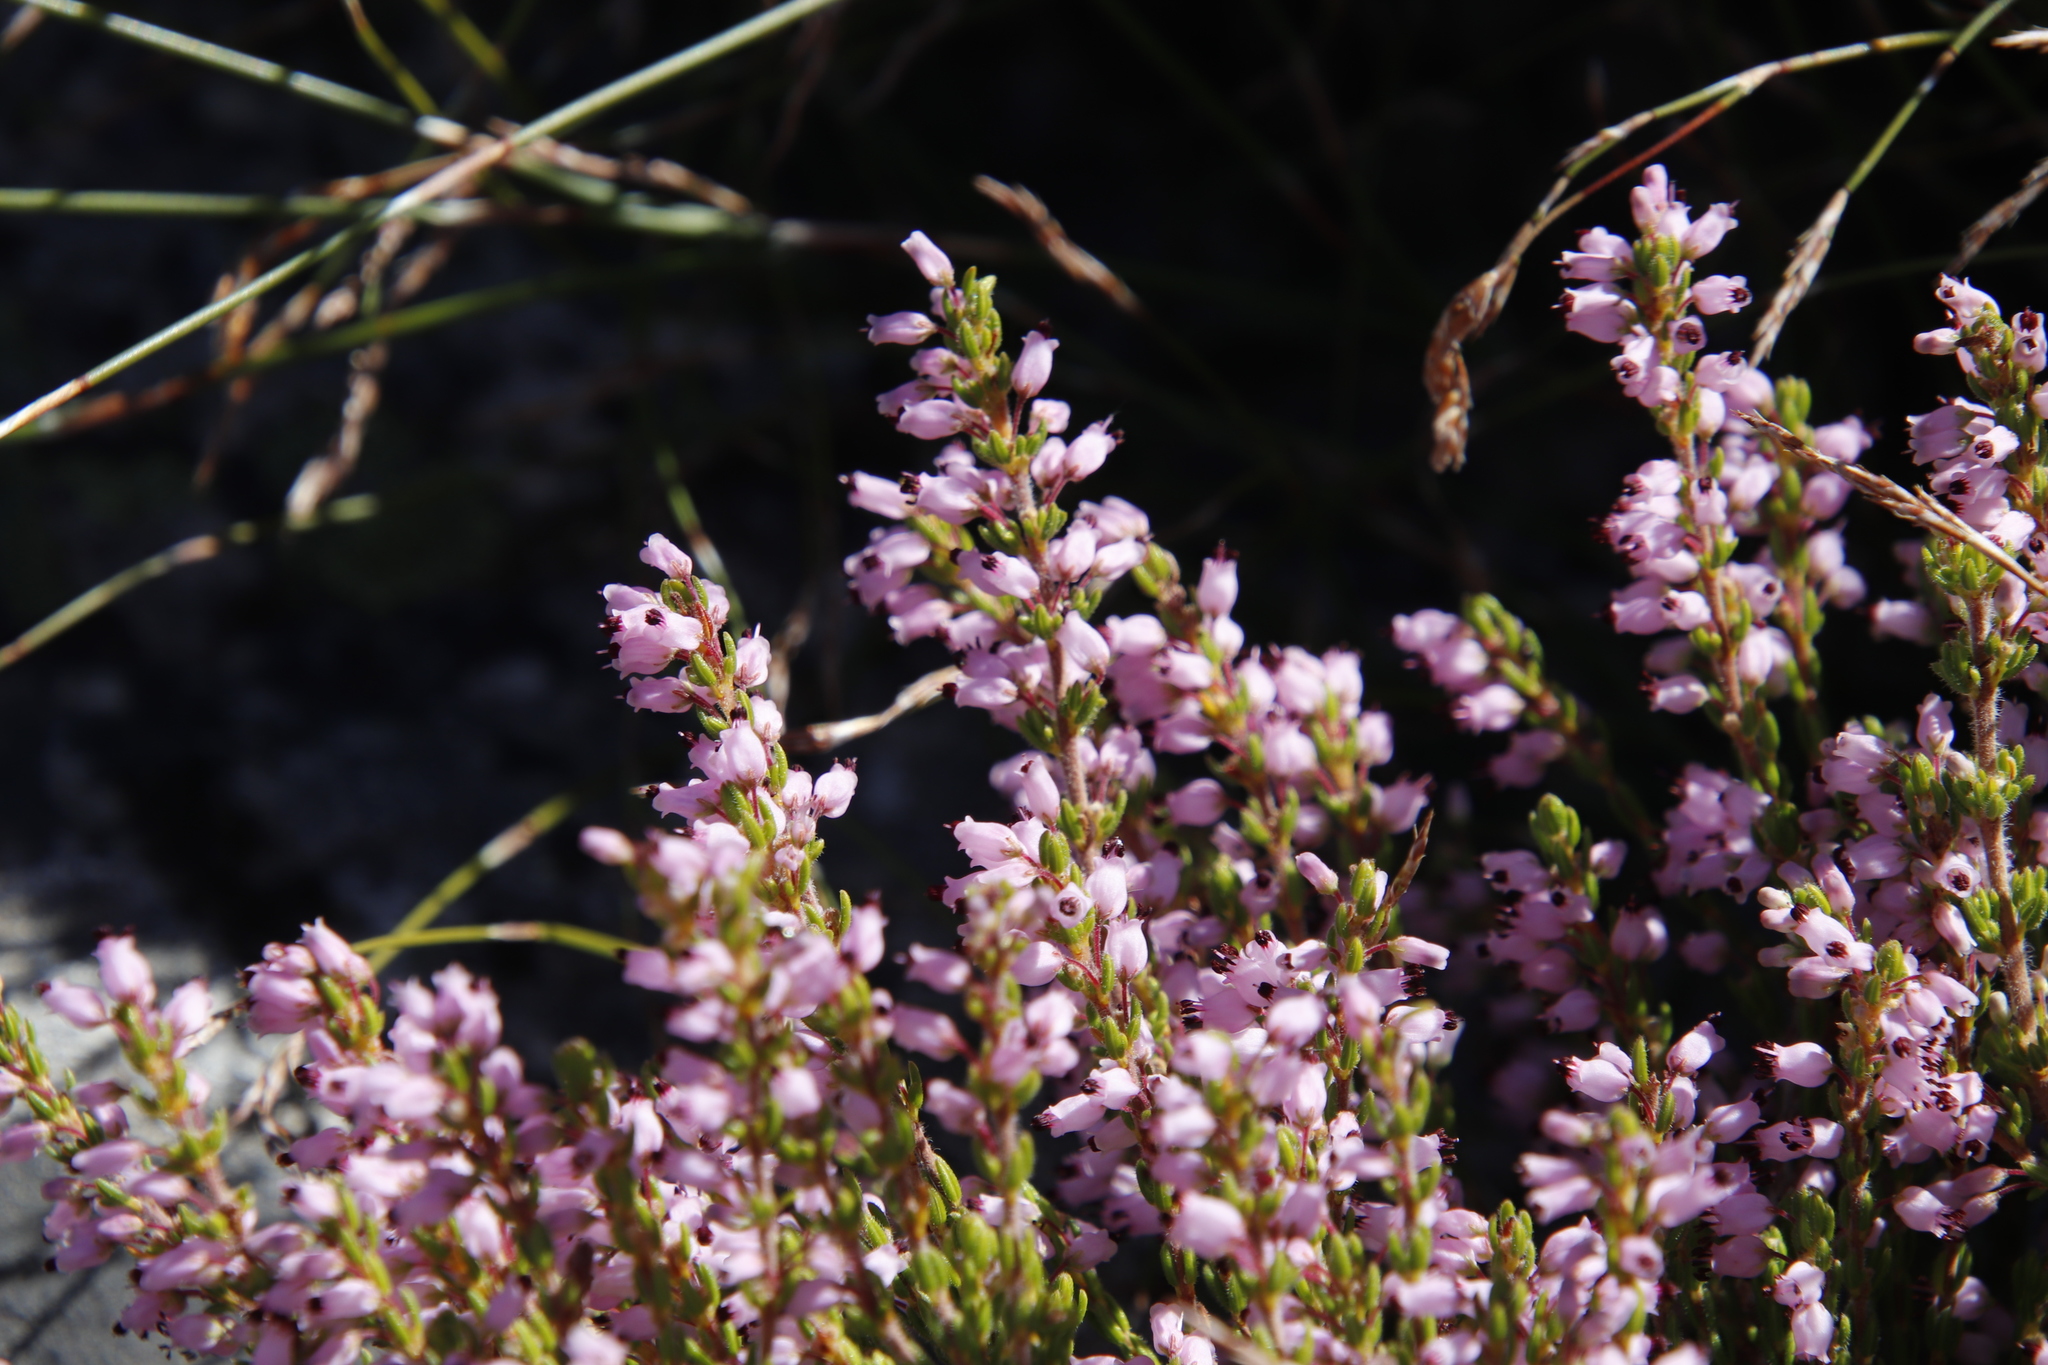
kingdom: Plantae
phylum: Tracheophyta
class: Magnoliopsida
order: Ericales
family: Ericaceae
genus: Erica
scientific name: Erica nudiflora
